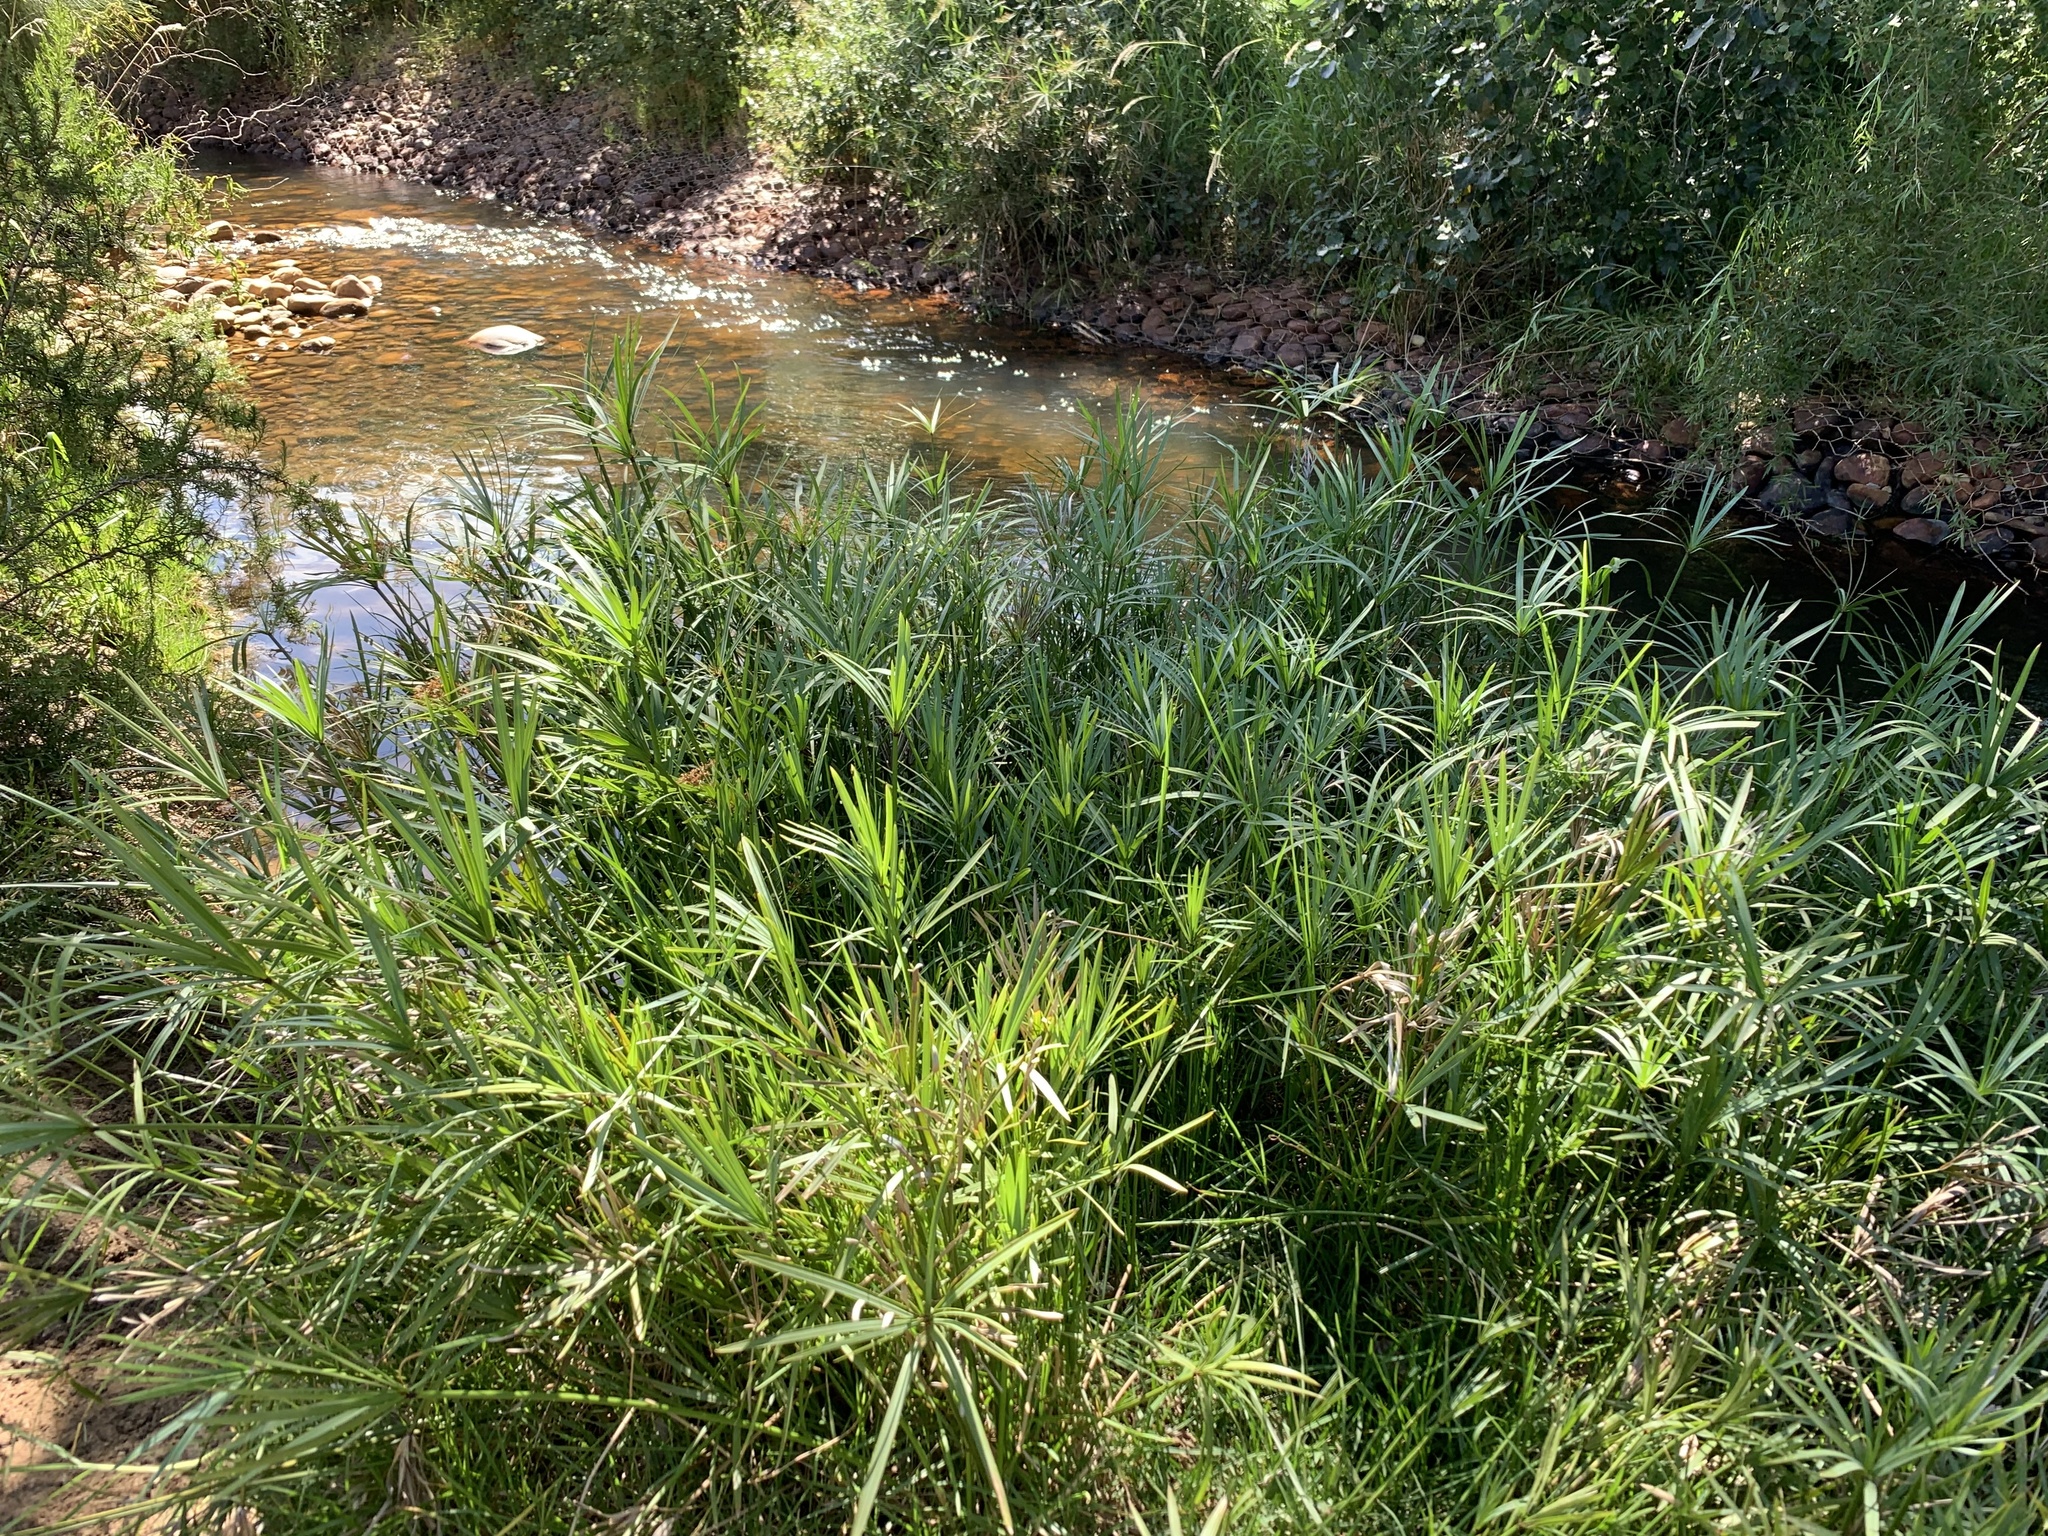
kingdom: Plantae
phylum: Tracheophyta
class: Liliopsida
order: Poales
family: Cyperaceae
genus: Cyperus
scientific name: Cyperus textilis
